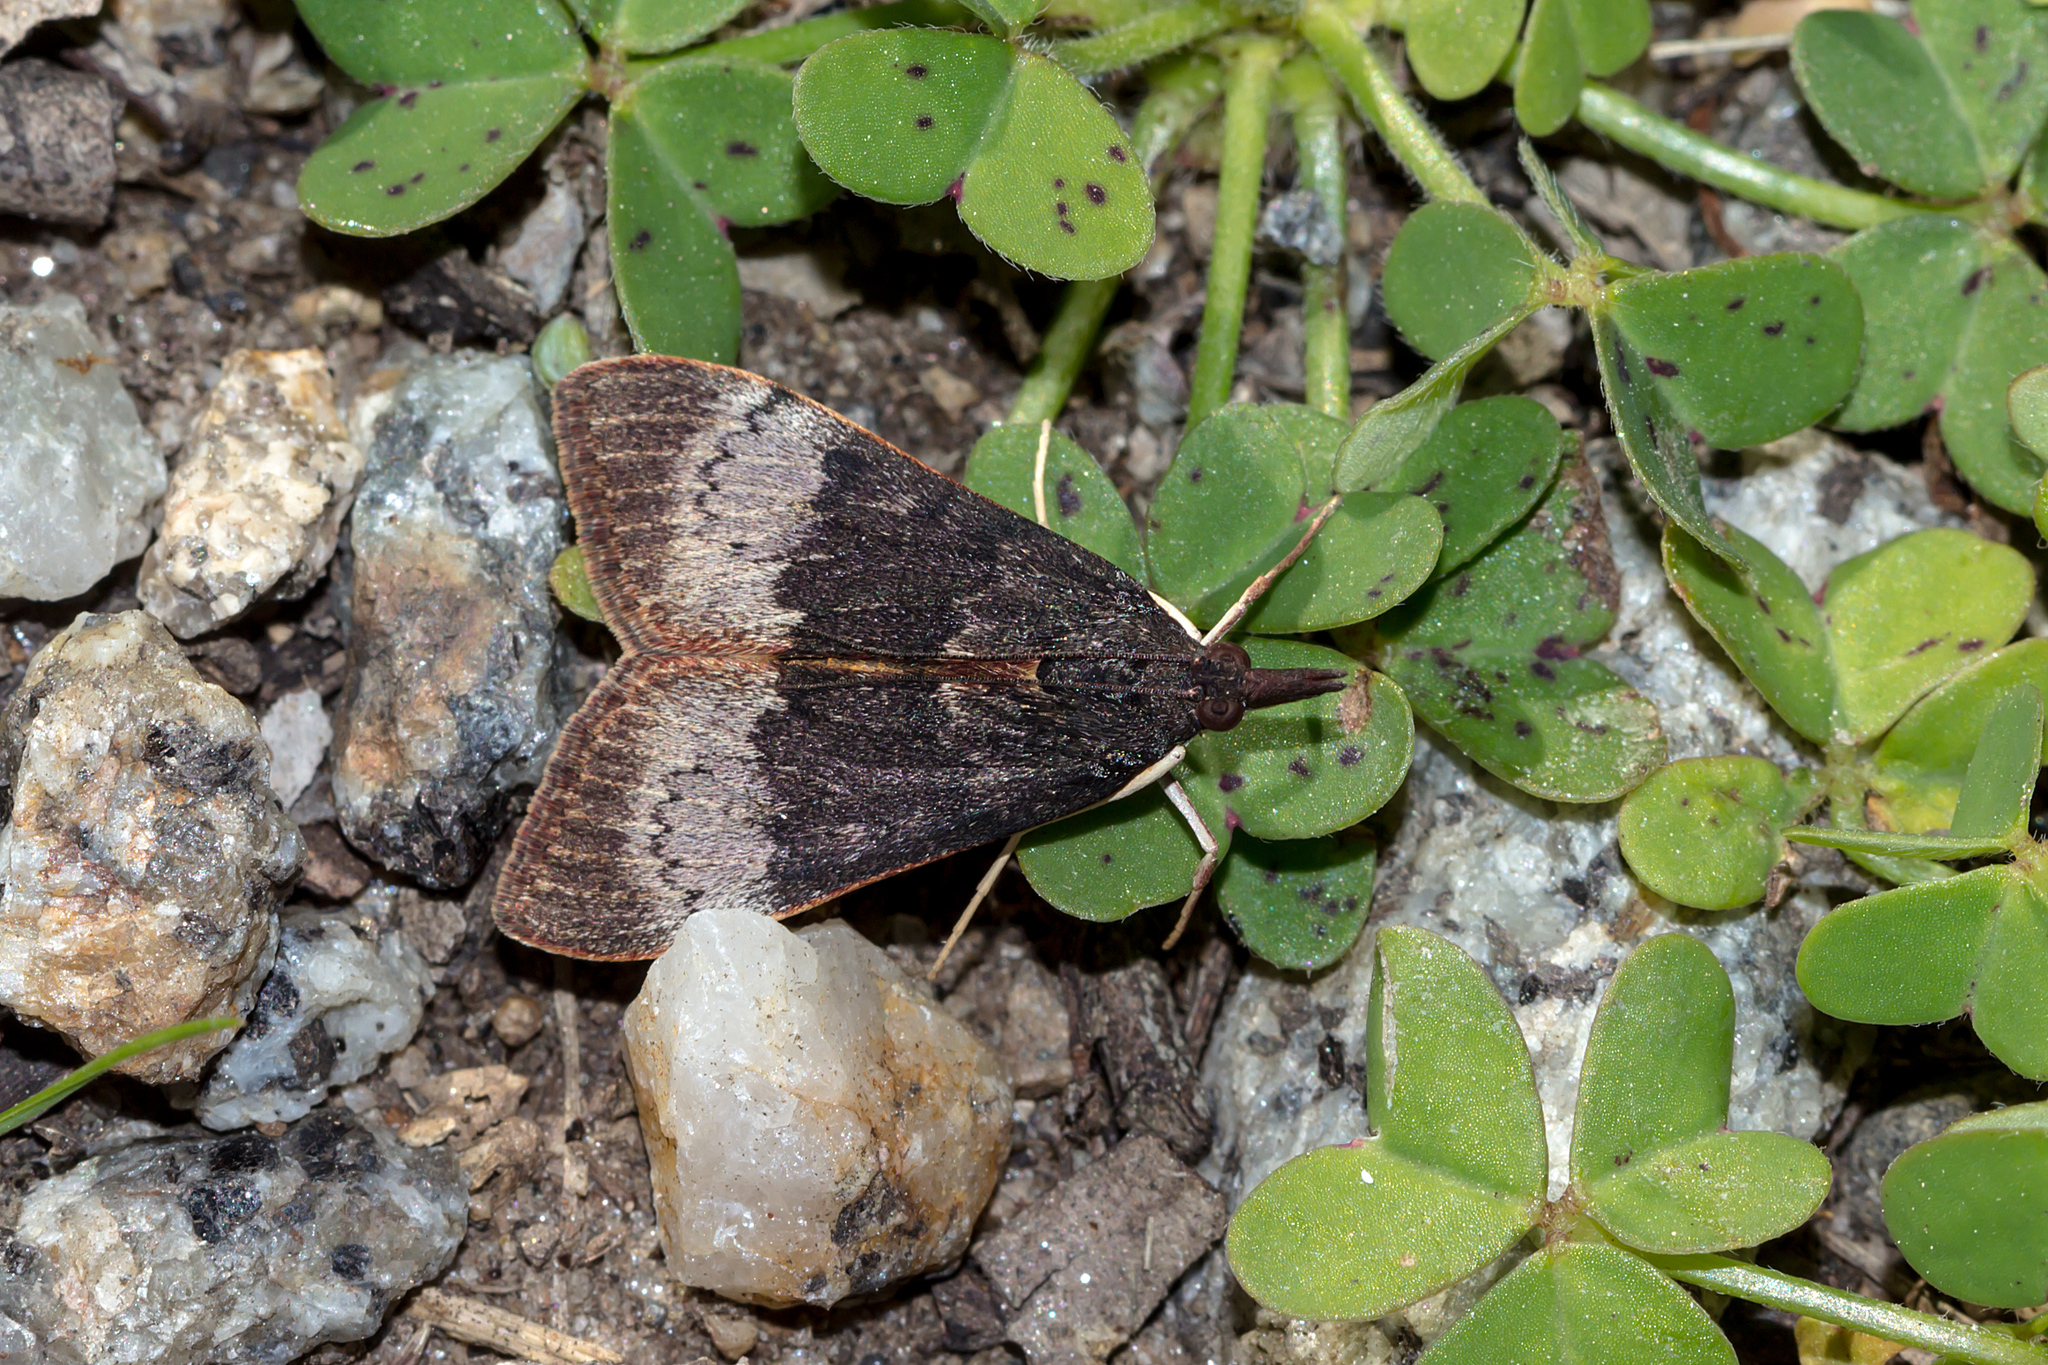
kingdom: Animalia
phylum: Arthropoda
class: Insecta
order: Lepidoptera
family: Crambidae
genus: Uresiphita
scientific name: Uresiphita ornithopteralis
